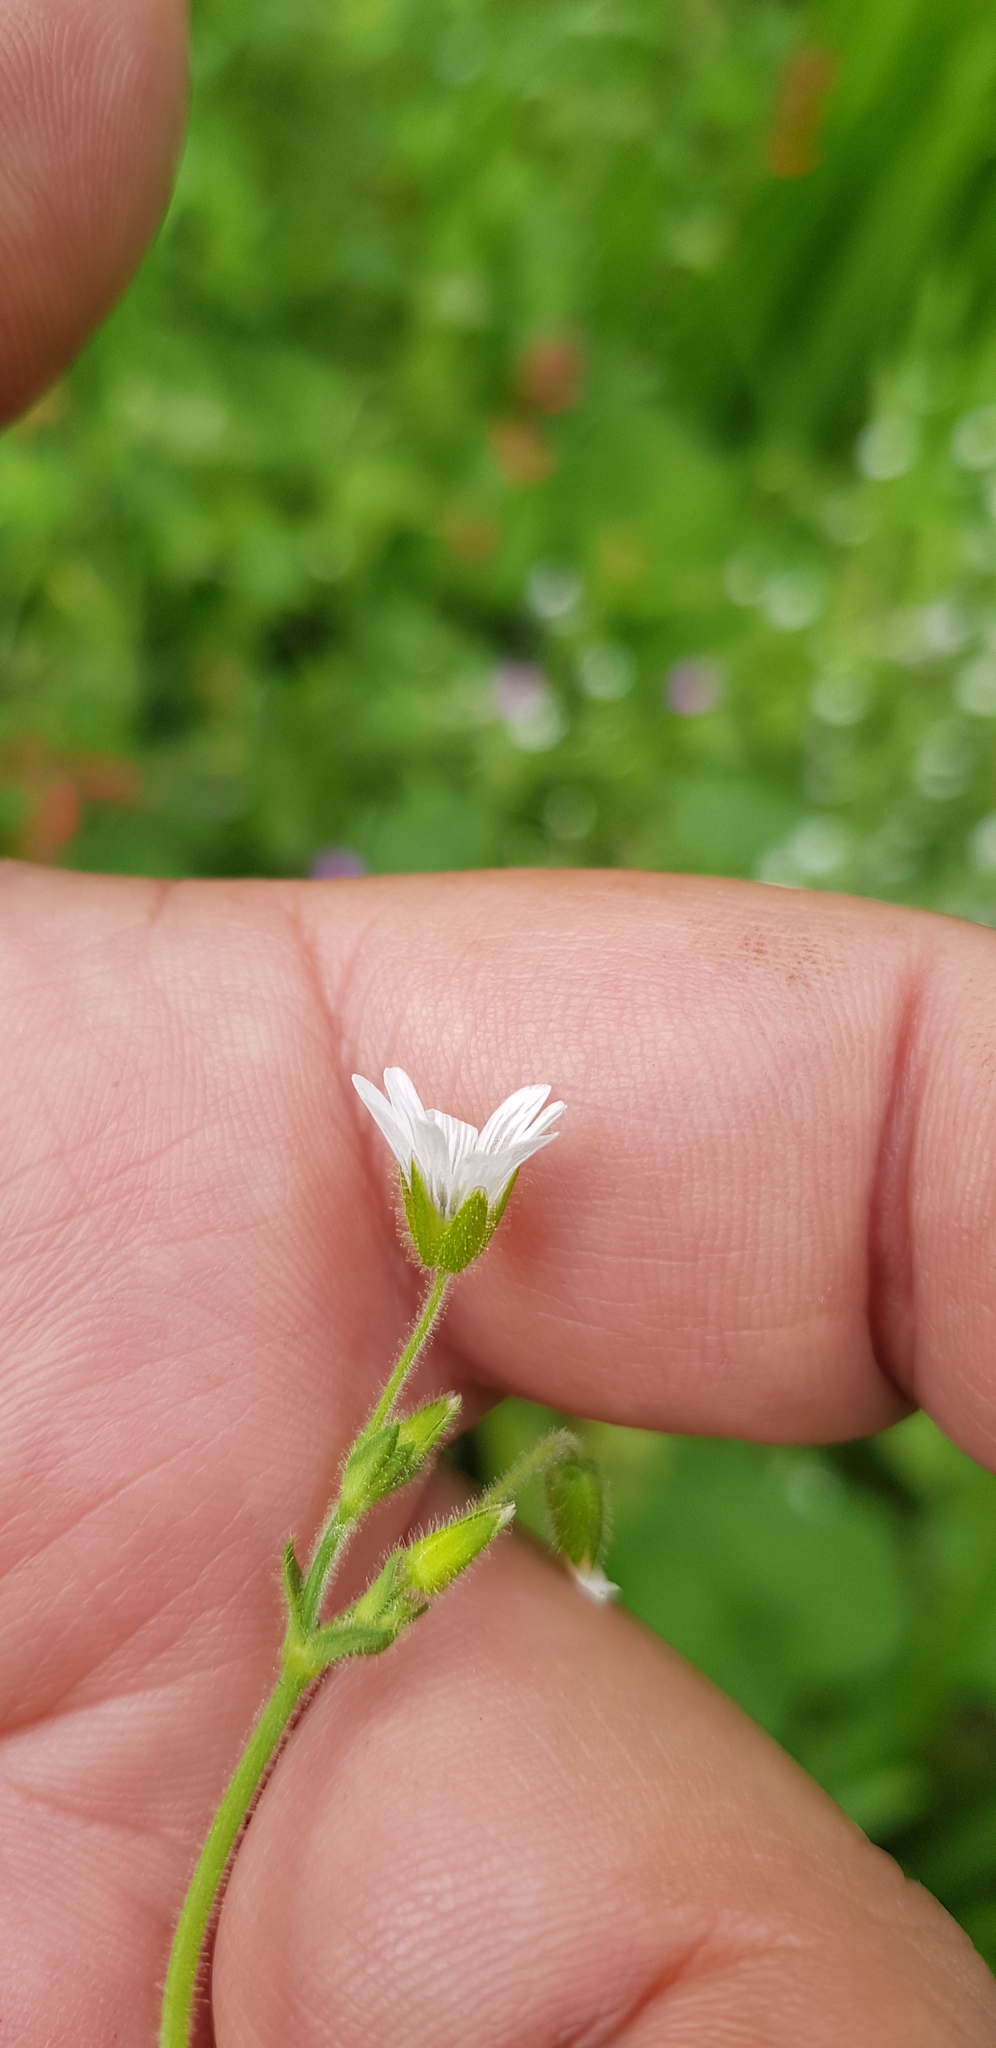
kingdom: Plantae
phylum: Tracheophyta
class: Magnoliopsida
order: Caryophyllales
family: Caryophyllaceae
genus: Stellaria
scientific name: Stellaria cuspidata
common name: Mexican chickweed
